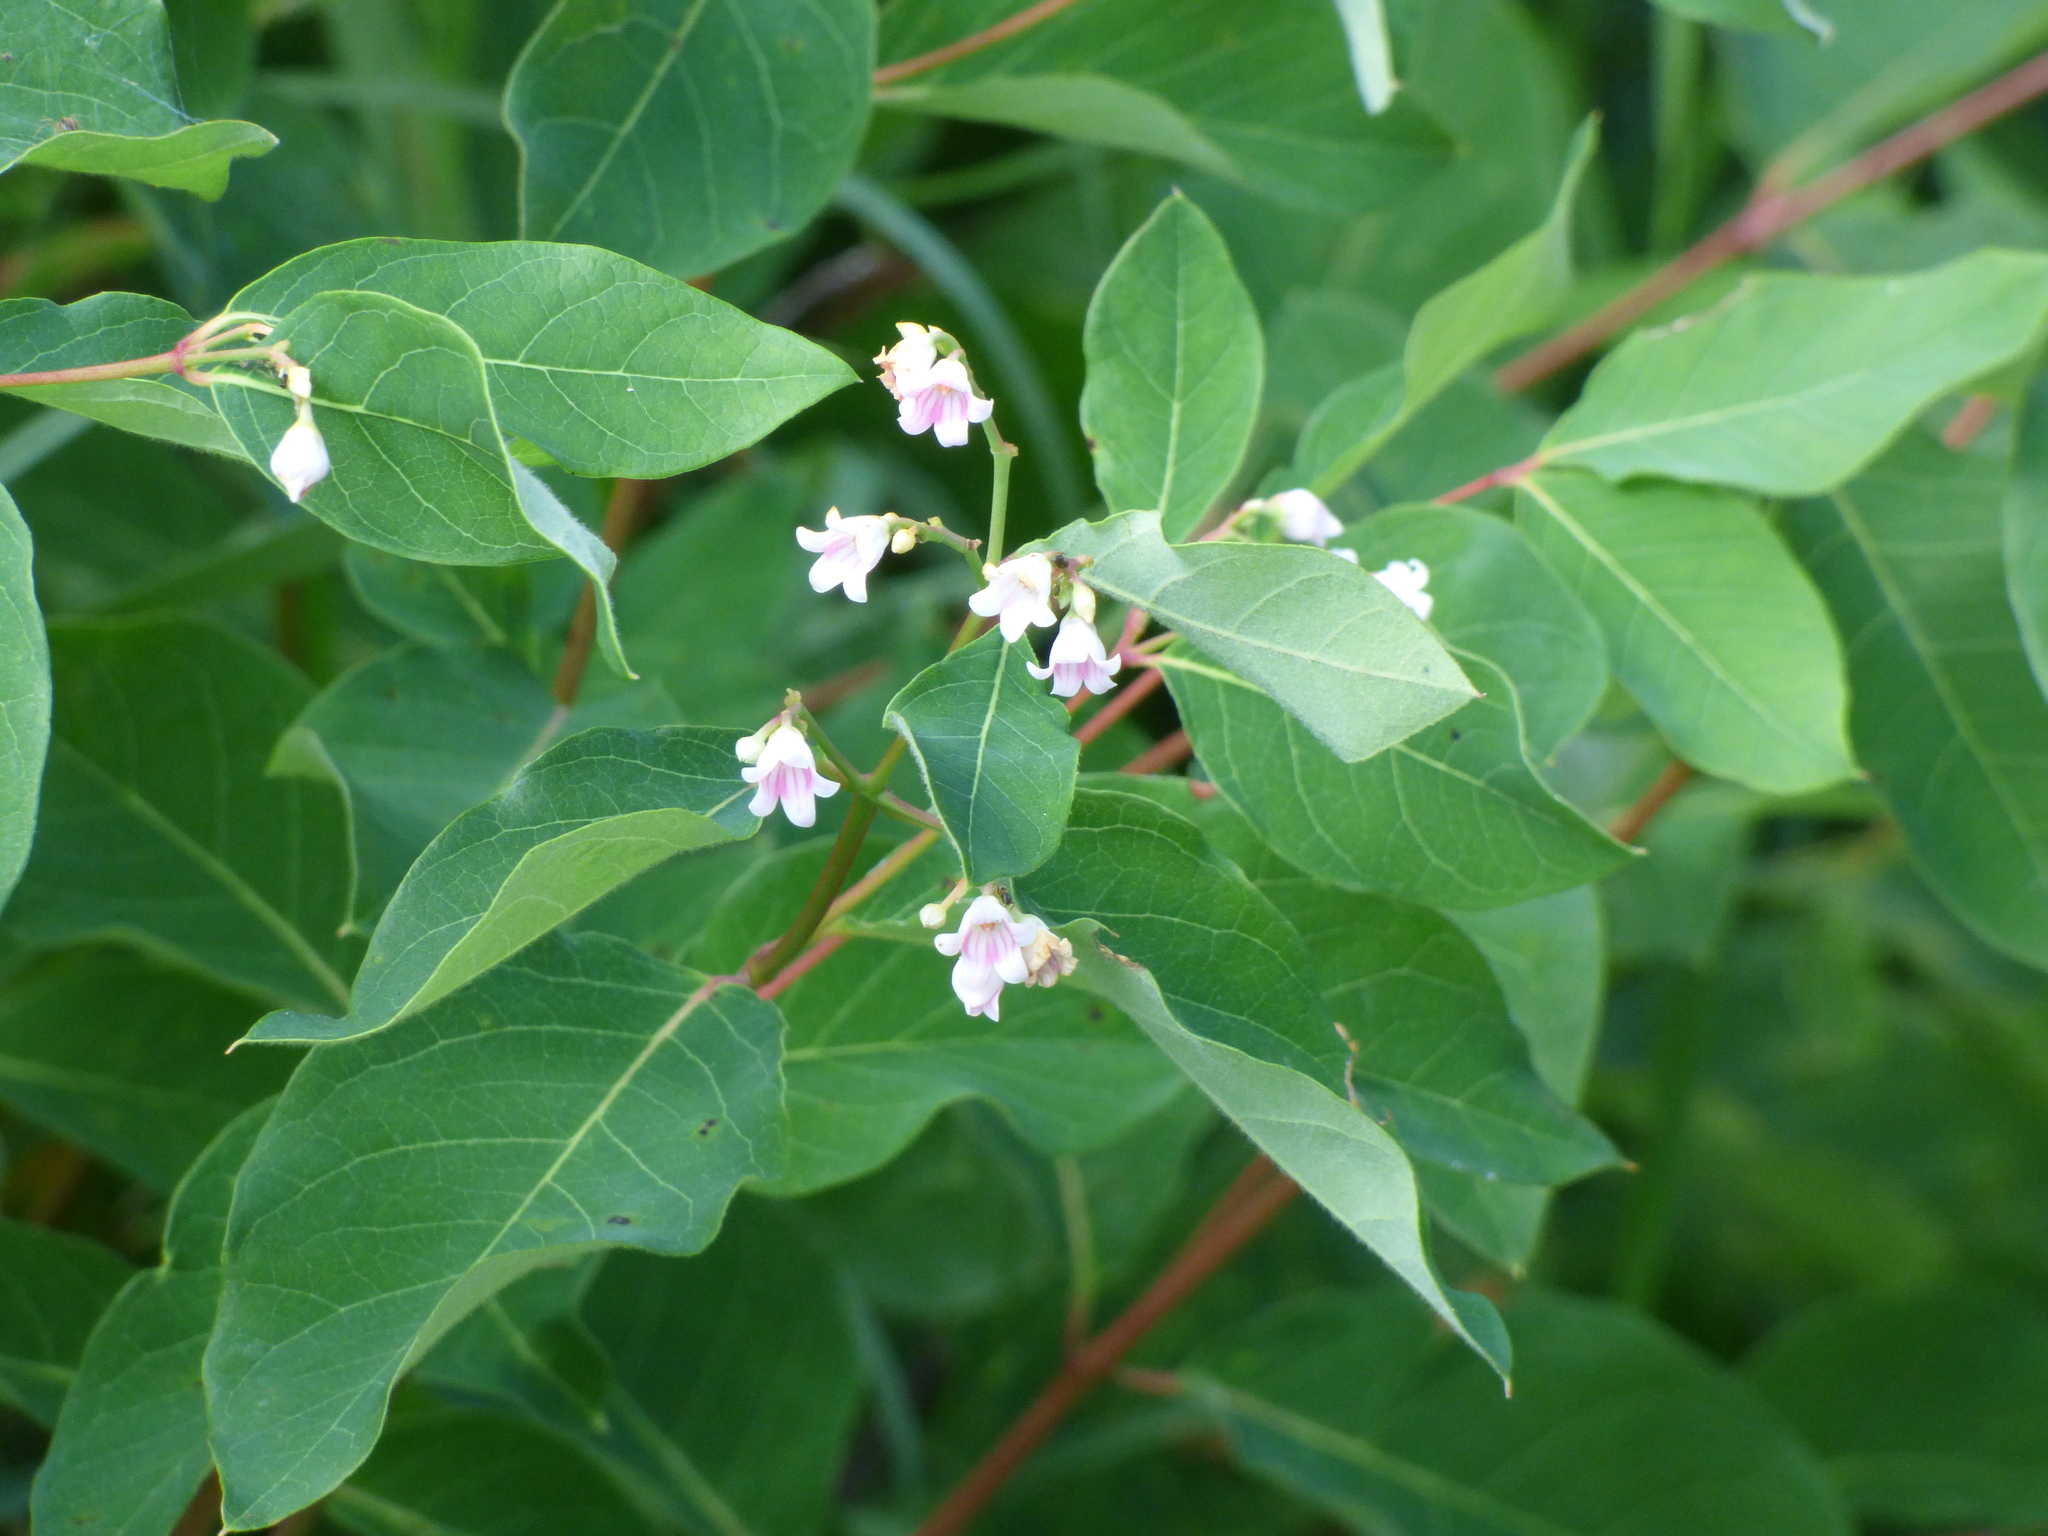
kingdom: Plantae
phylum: Tracheophyta
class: Magnoliopsida
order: Gentianales
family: Apocynaceae
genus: Apocynum
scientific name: Apocynum androsaemifolium
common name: Spreading dogbane
